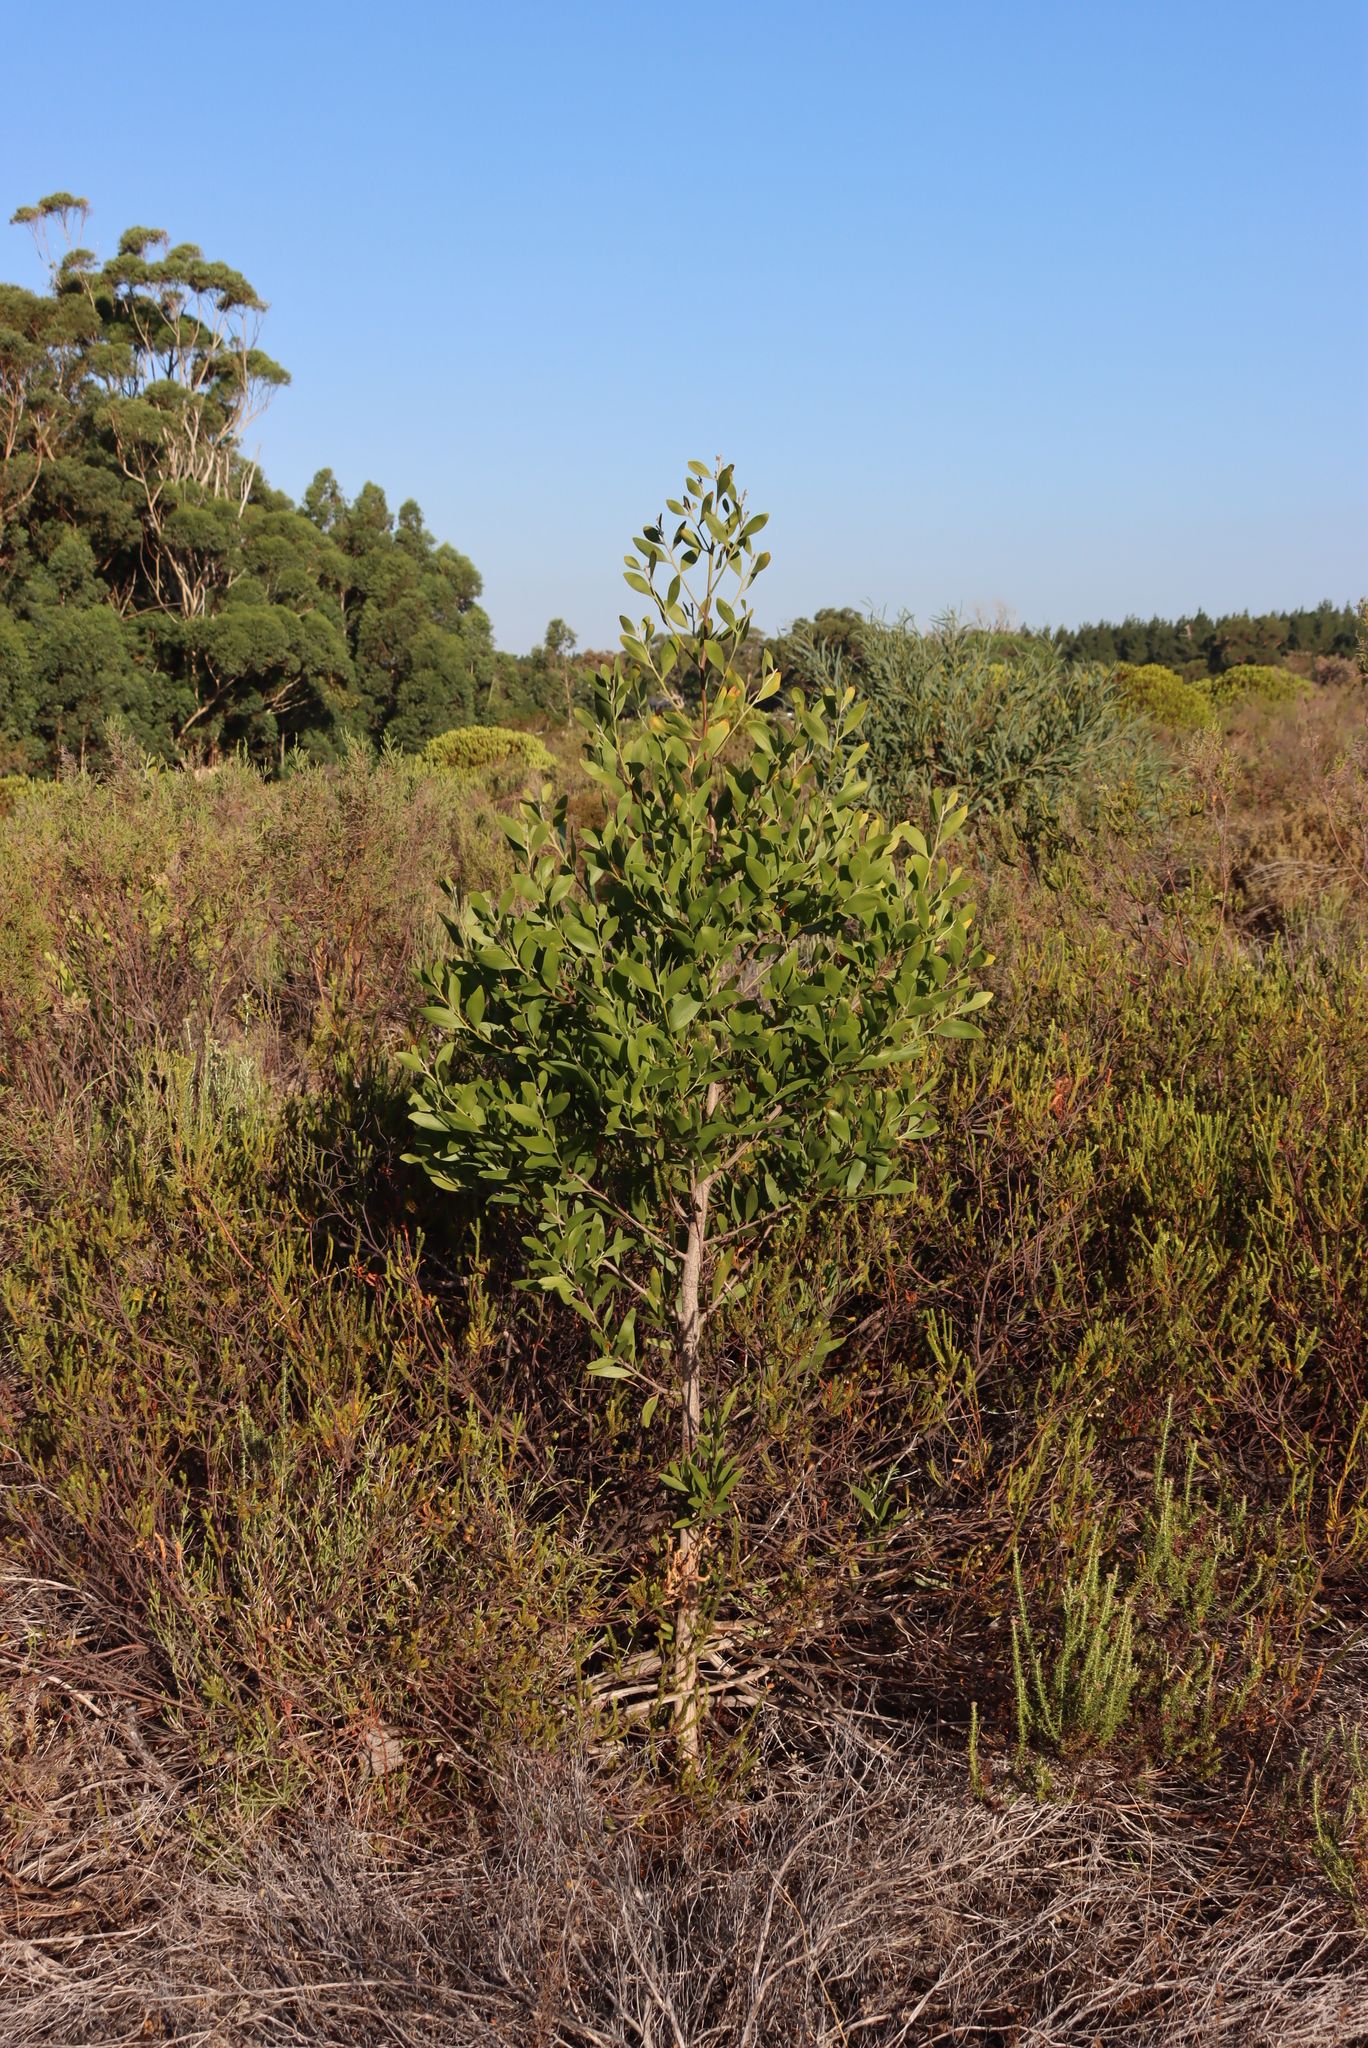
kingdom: Plantae
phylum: Tracheophyta
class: Magnoliopsida
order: Fabales
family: Fabaceae
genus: Acacia
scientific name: Acacia melanoxylon
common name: Blackwood
